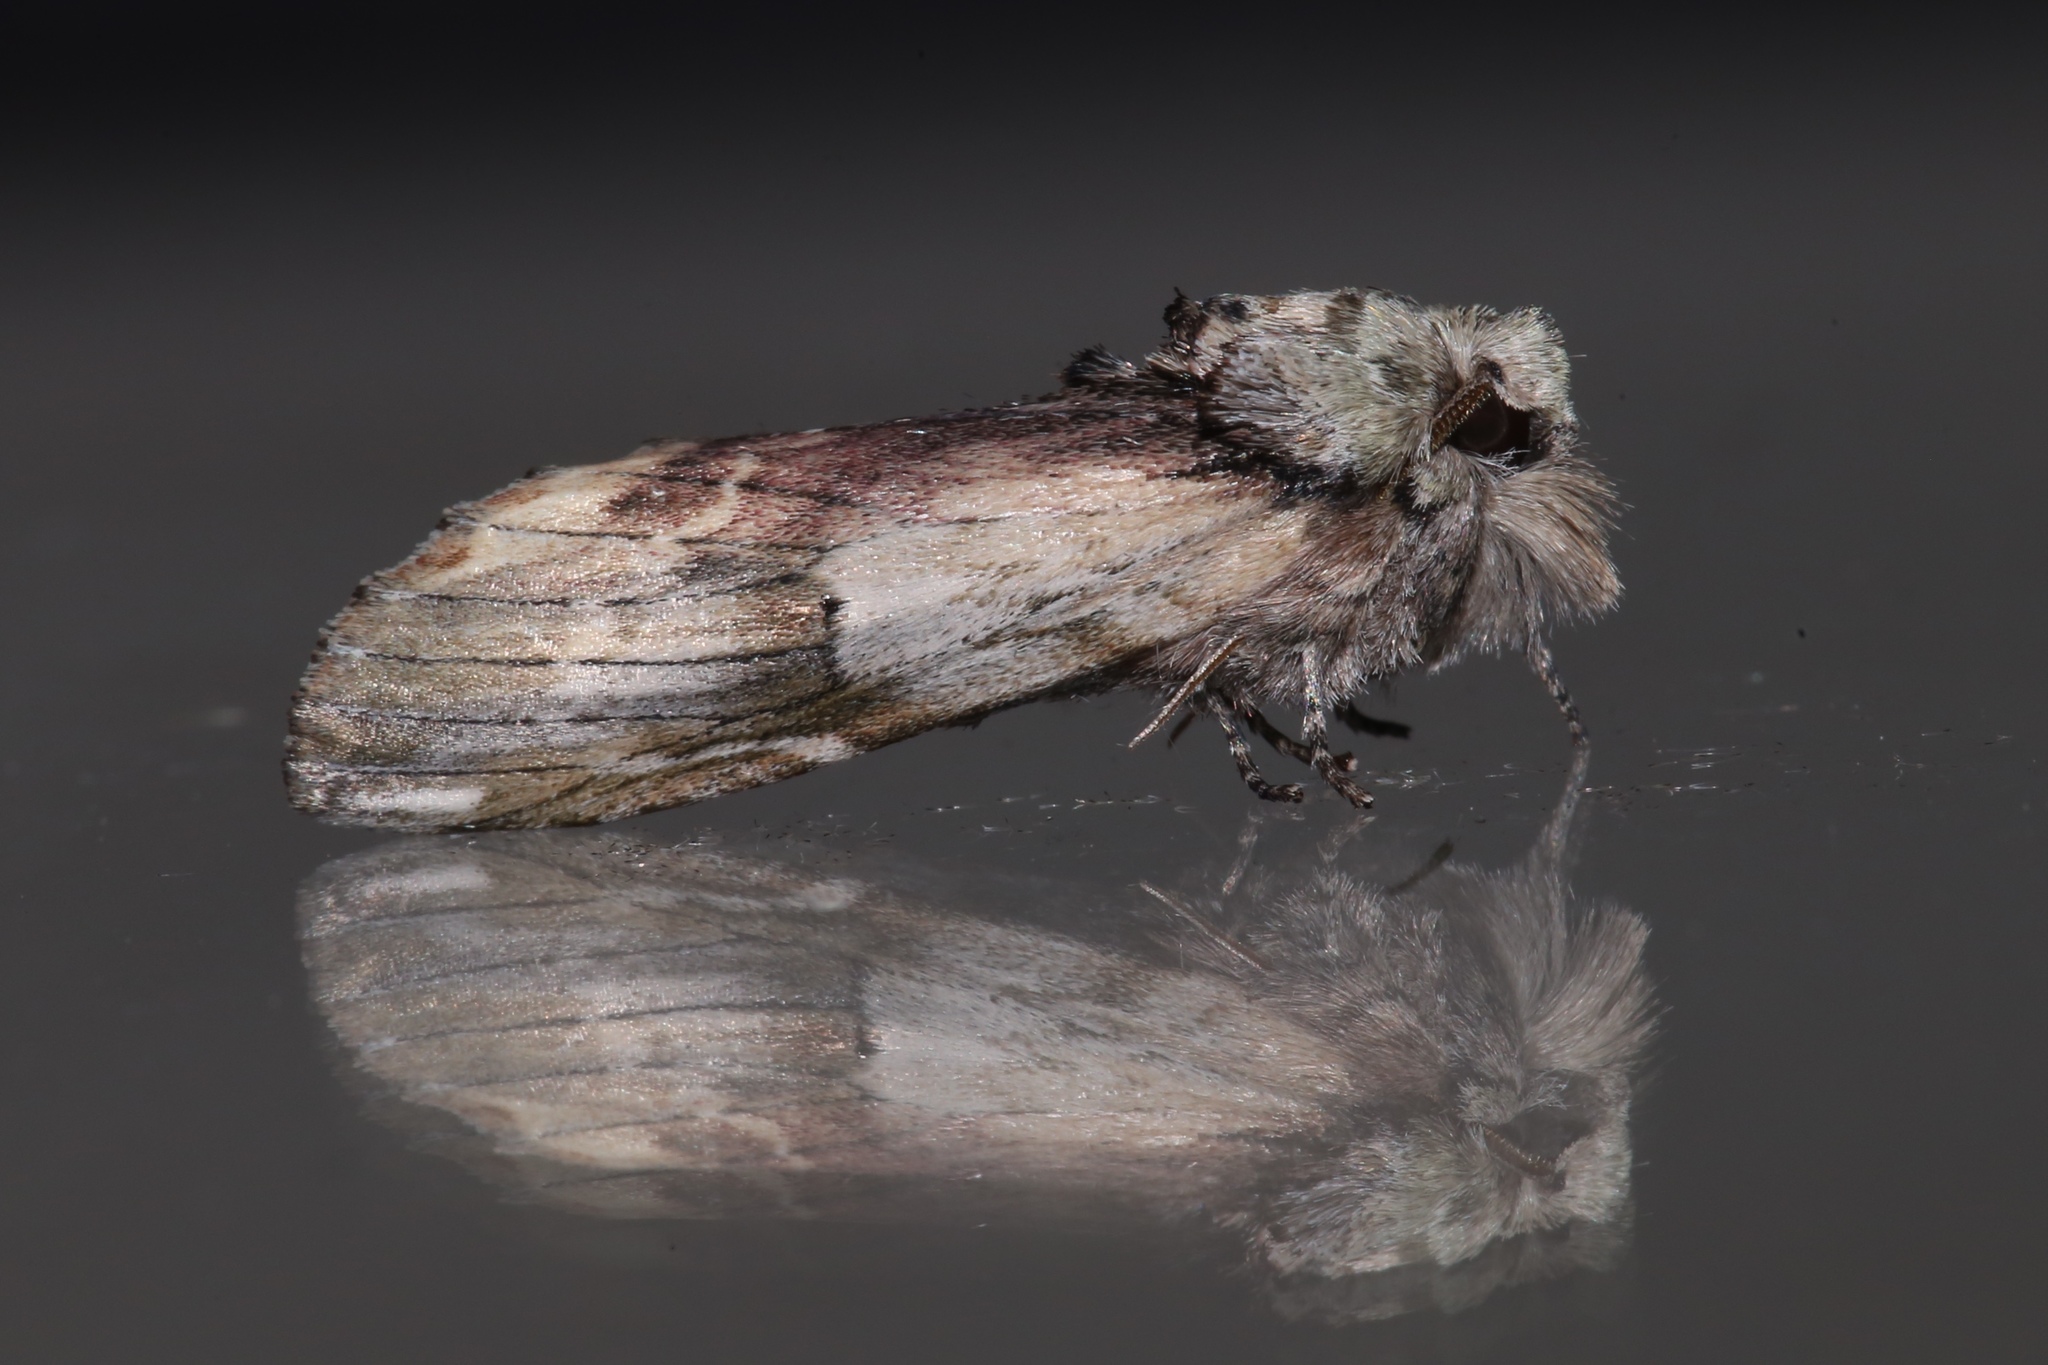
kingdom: Animalia
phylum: Arthropoda
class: Insecta
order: Lepidoptera
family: Notodontidae
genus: Schizura
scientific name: Schizura
